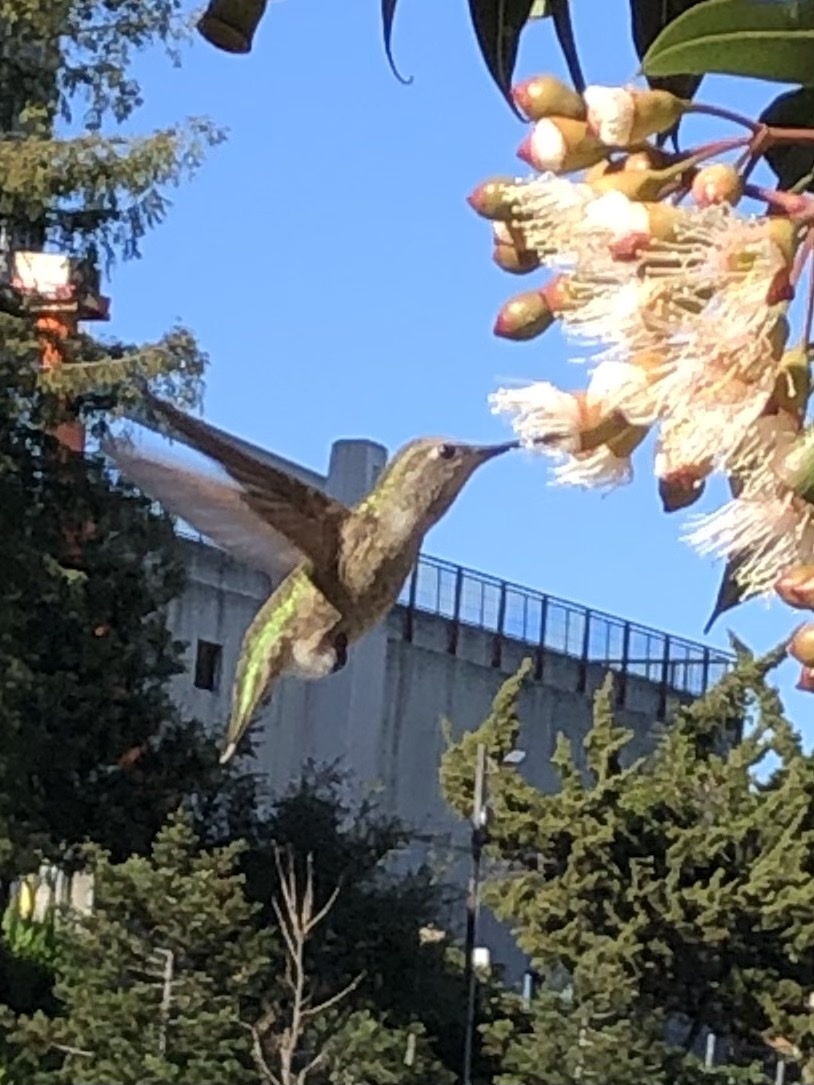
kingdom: Animalia
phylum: Chordata
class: Aves
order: Apodiformes
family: Trochilidae
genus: Calypte
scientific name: Calypte anna
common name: Anna's hummingbird
